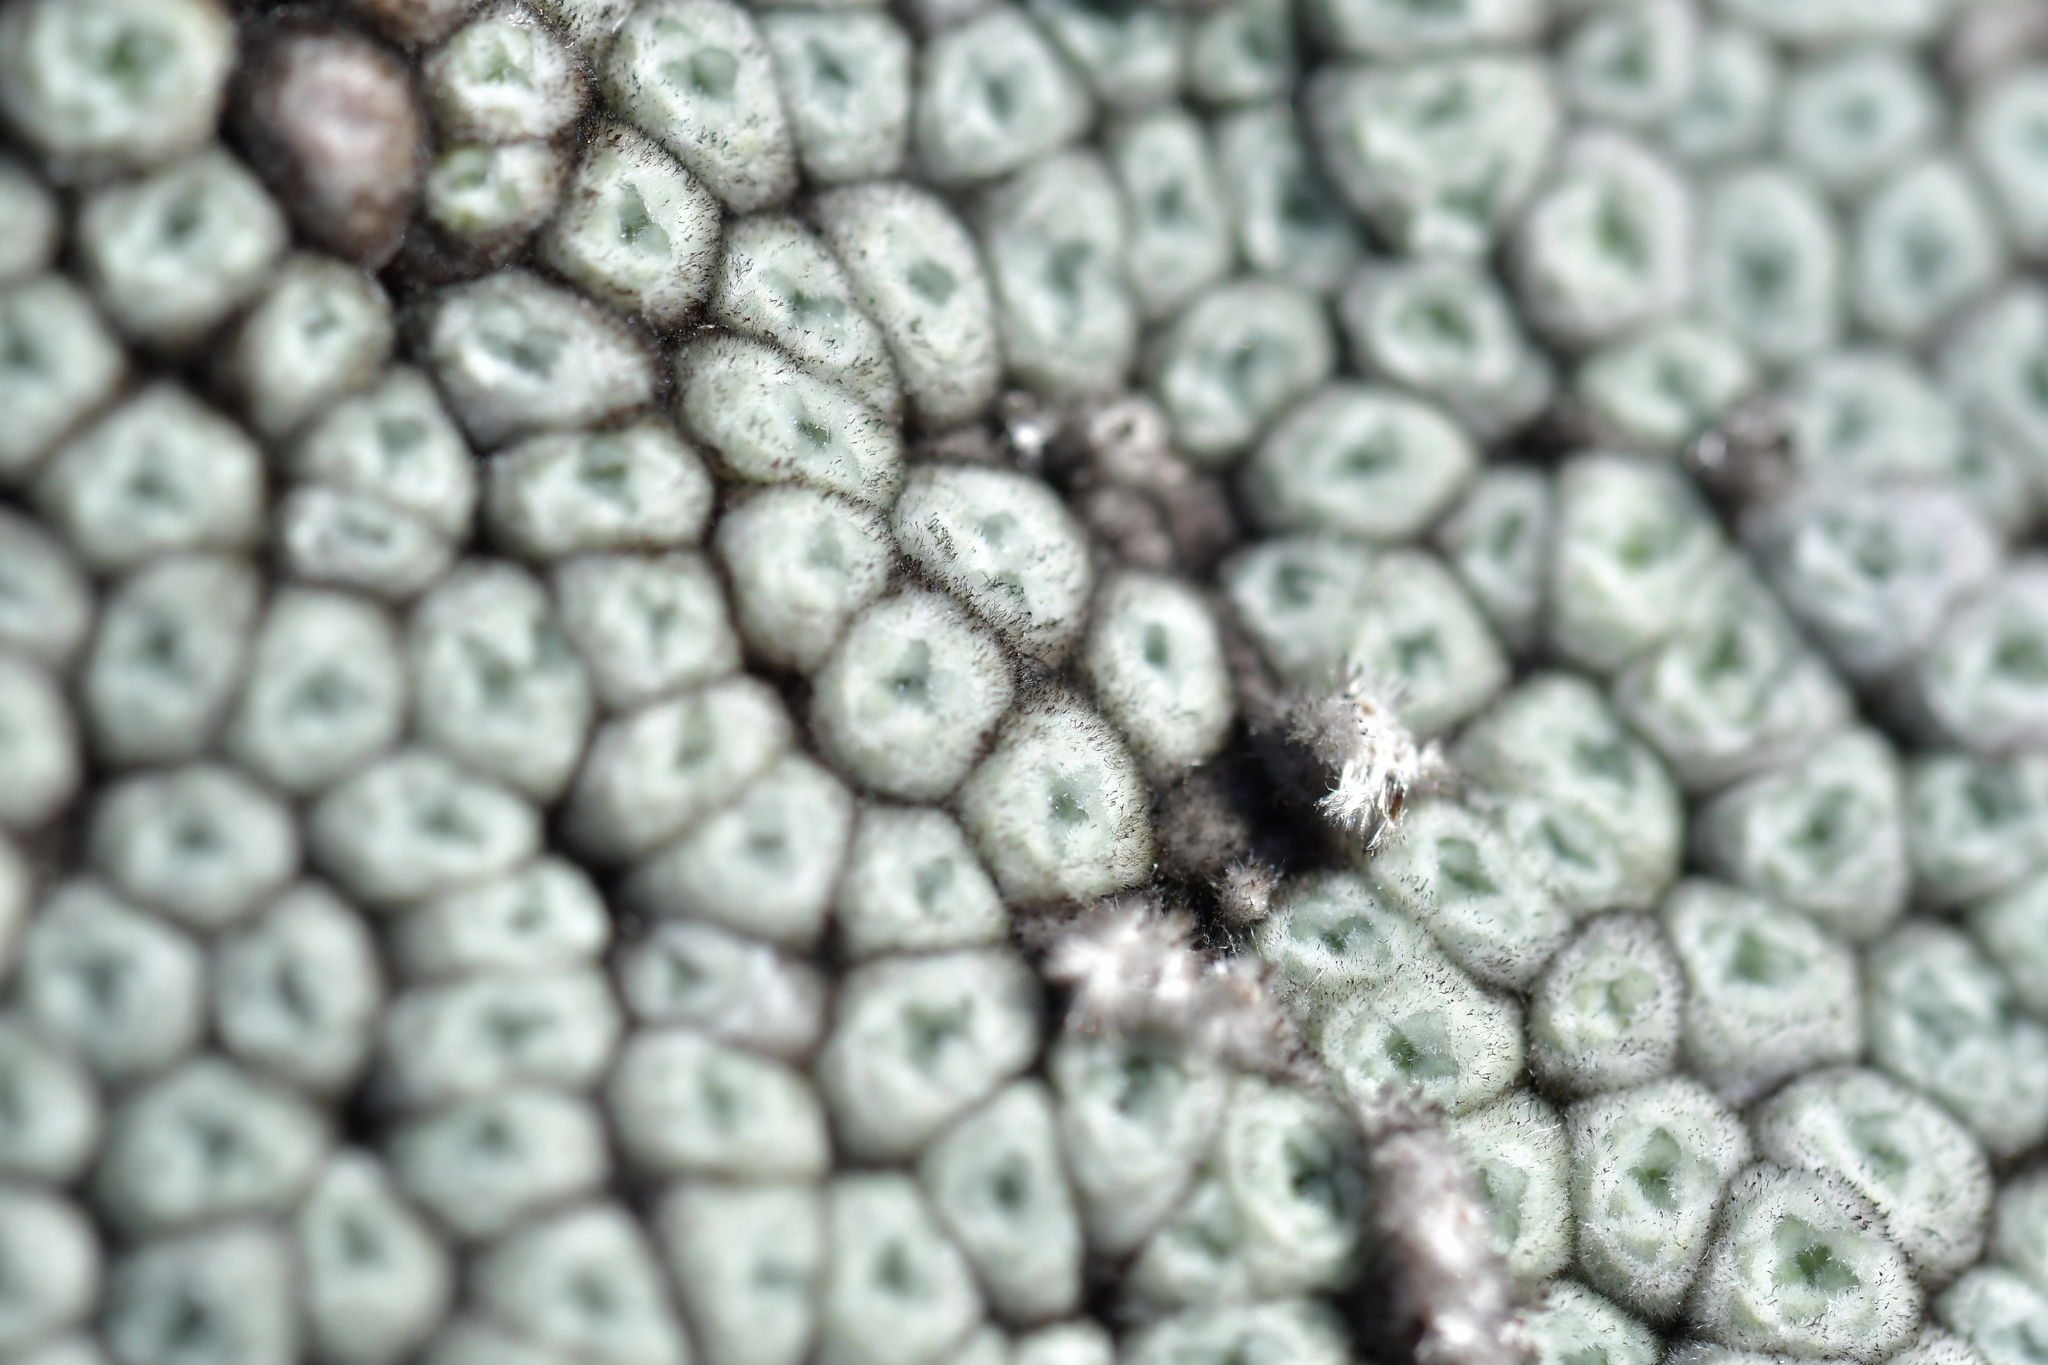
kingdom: Plantae
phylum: Tracheophyta
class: Magnoliopsida
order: Asterales
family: Asteraceae
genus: Raoulia
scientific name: Raoulia eximia
